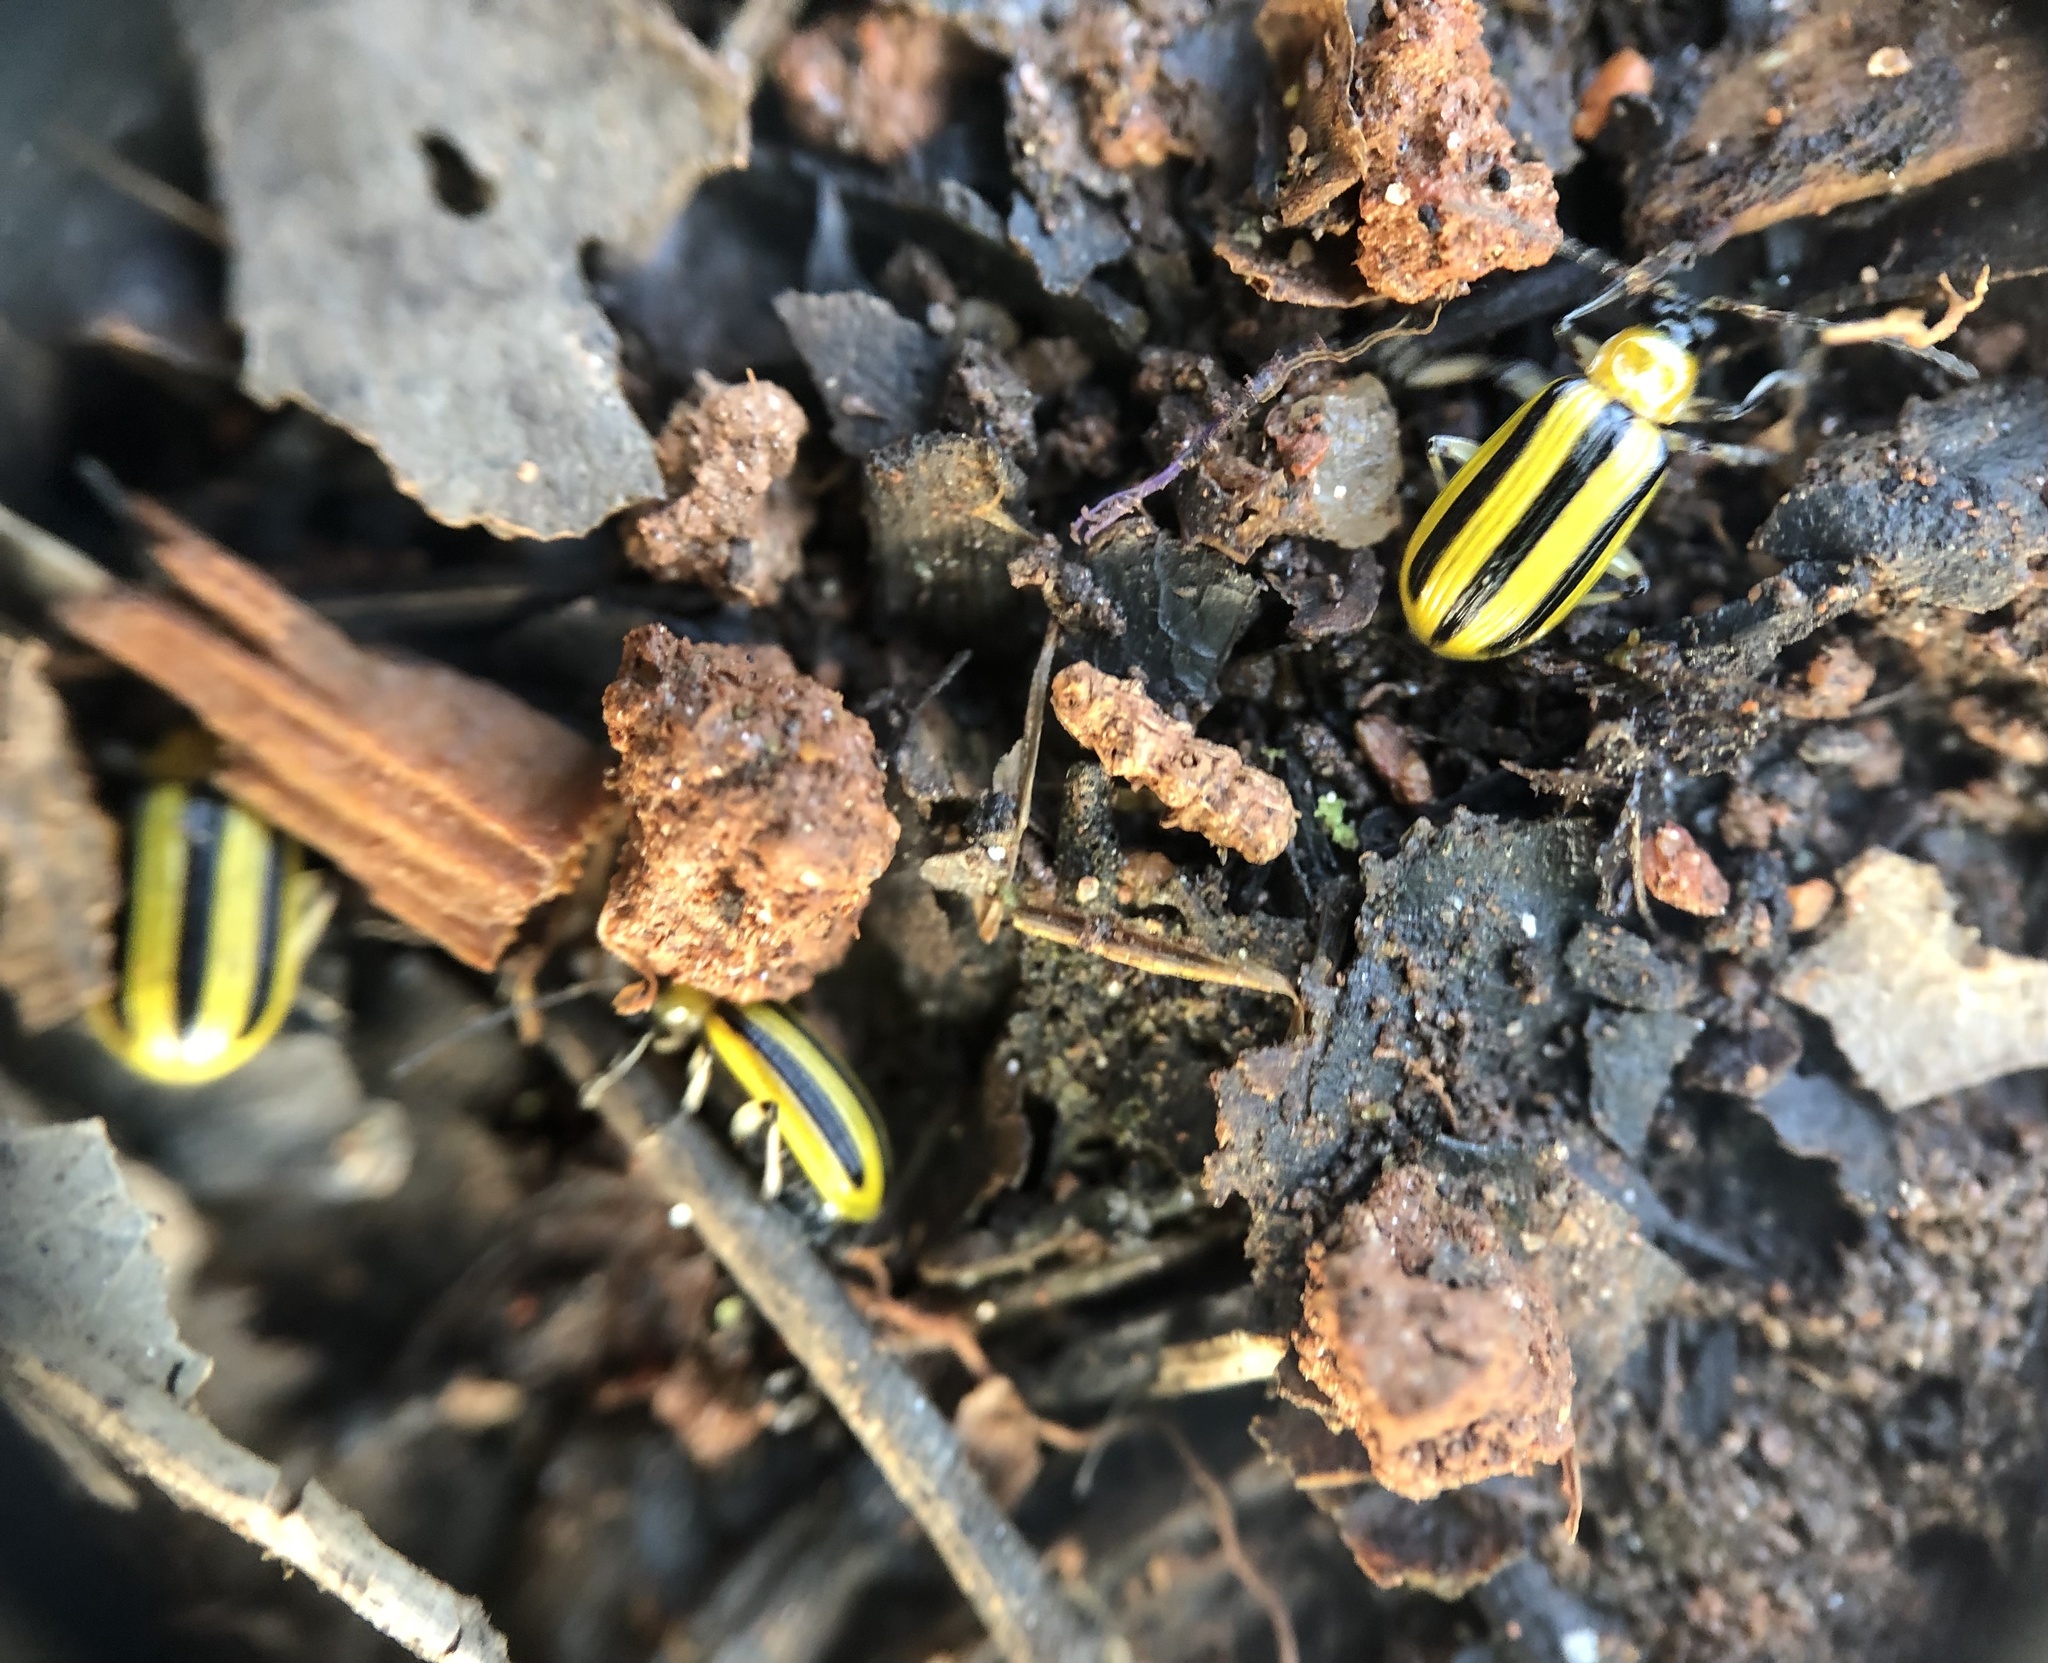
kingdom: Animalia
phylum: Arthropoda
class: Insecta
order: Coleoptera
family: Chrysomelidae
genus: Acalymma
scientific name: Acalymma vittatum
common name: Striped cucumber beetle
